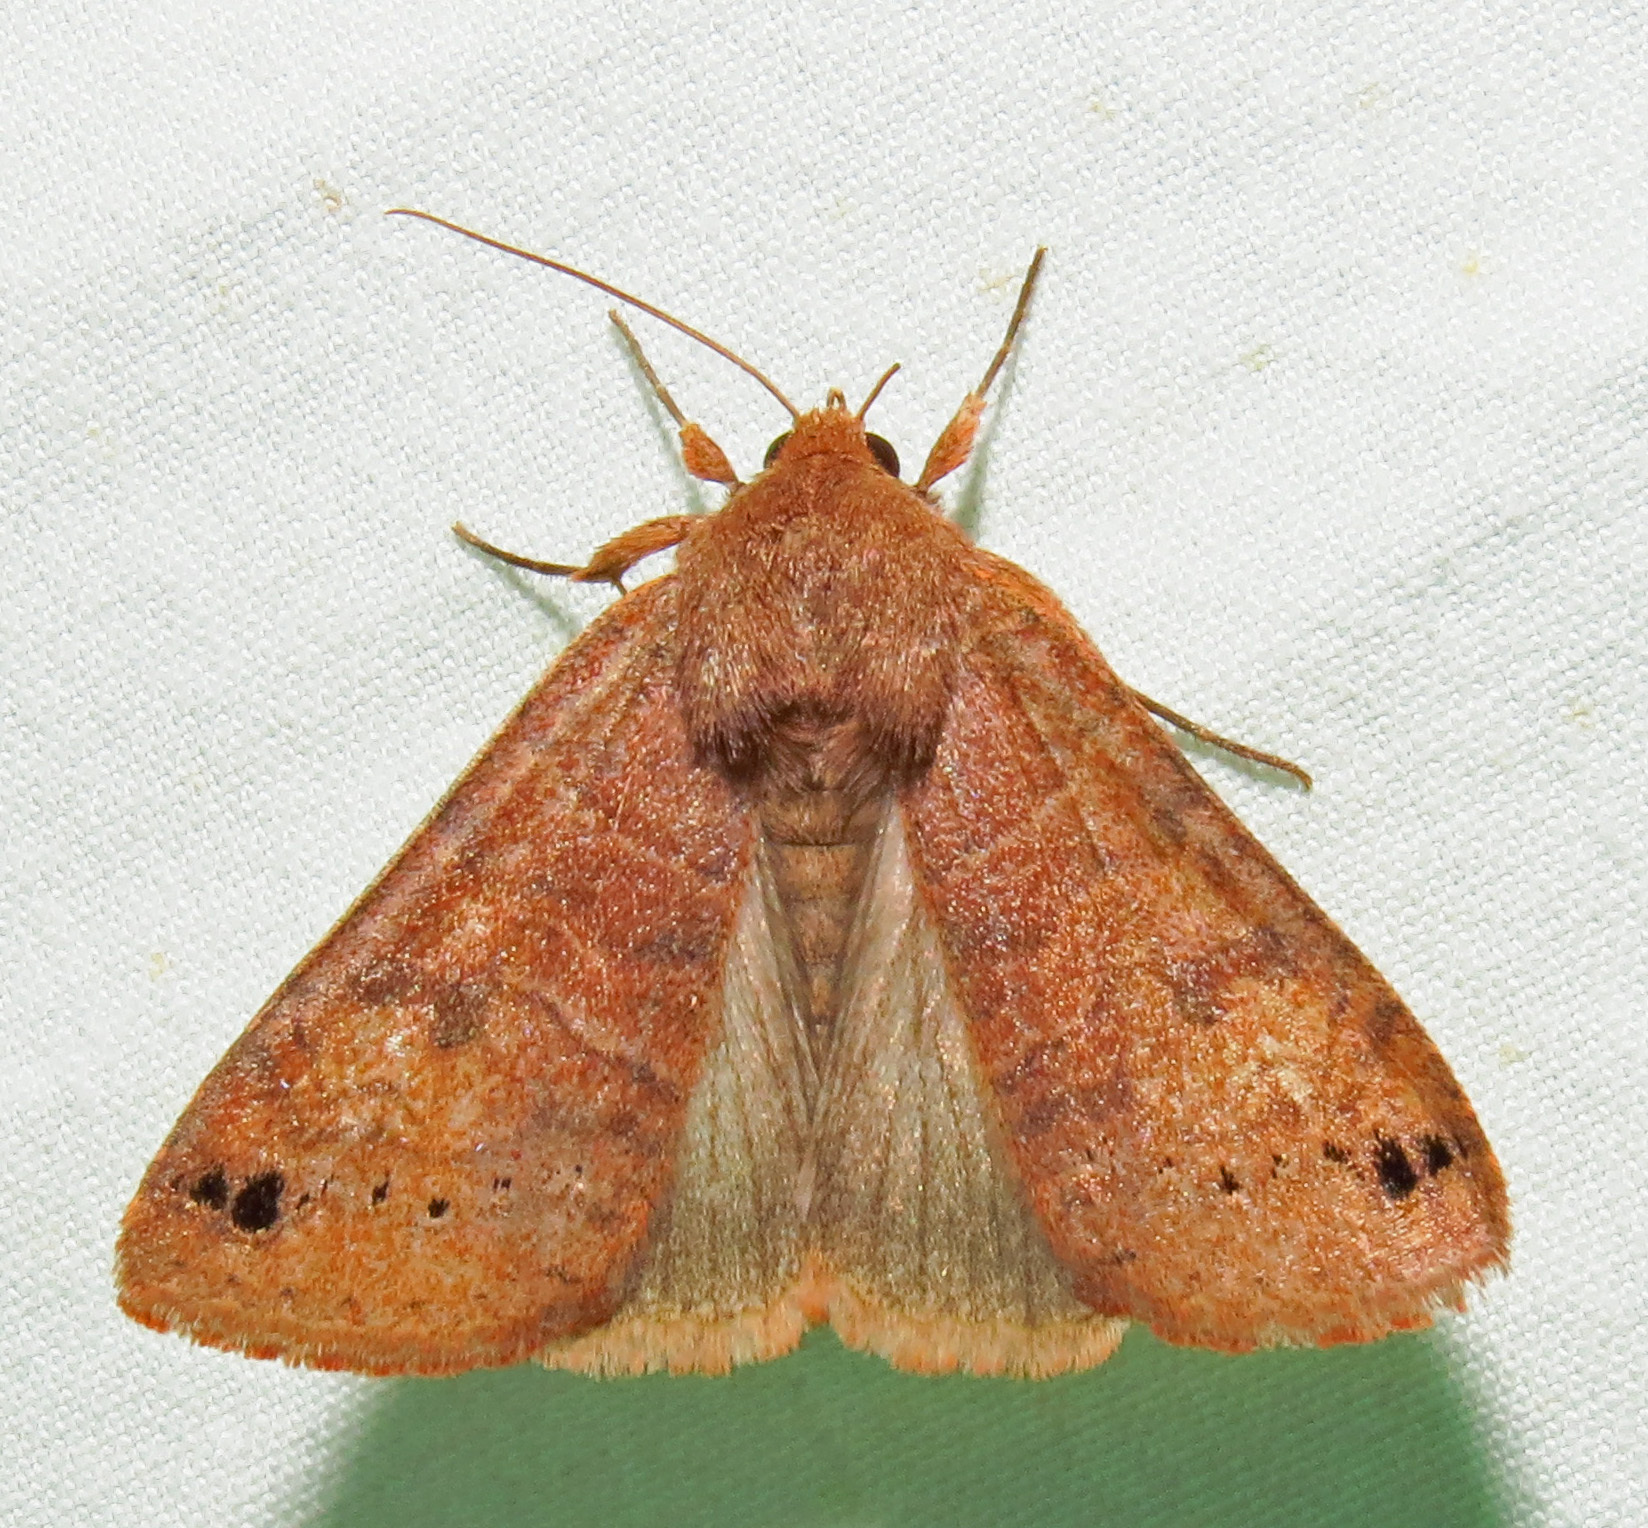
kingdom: Animalia
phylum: Arthropoda
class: Insecta
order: Lepidoptera
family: Erebidae
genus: Cissusa
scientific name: Cissusa spadix
